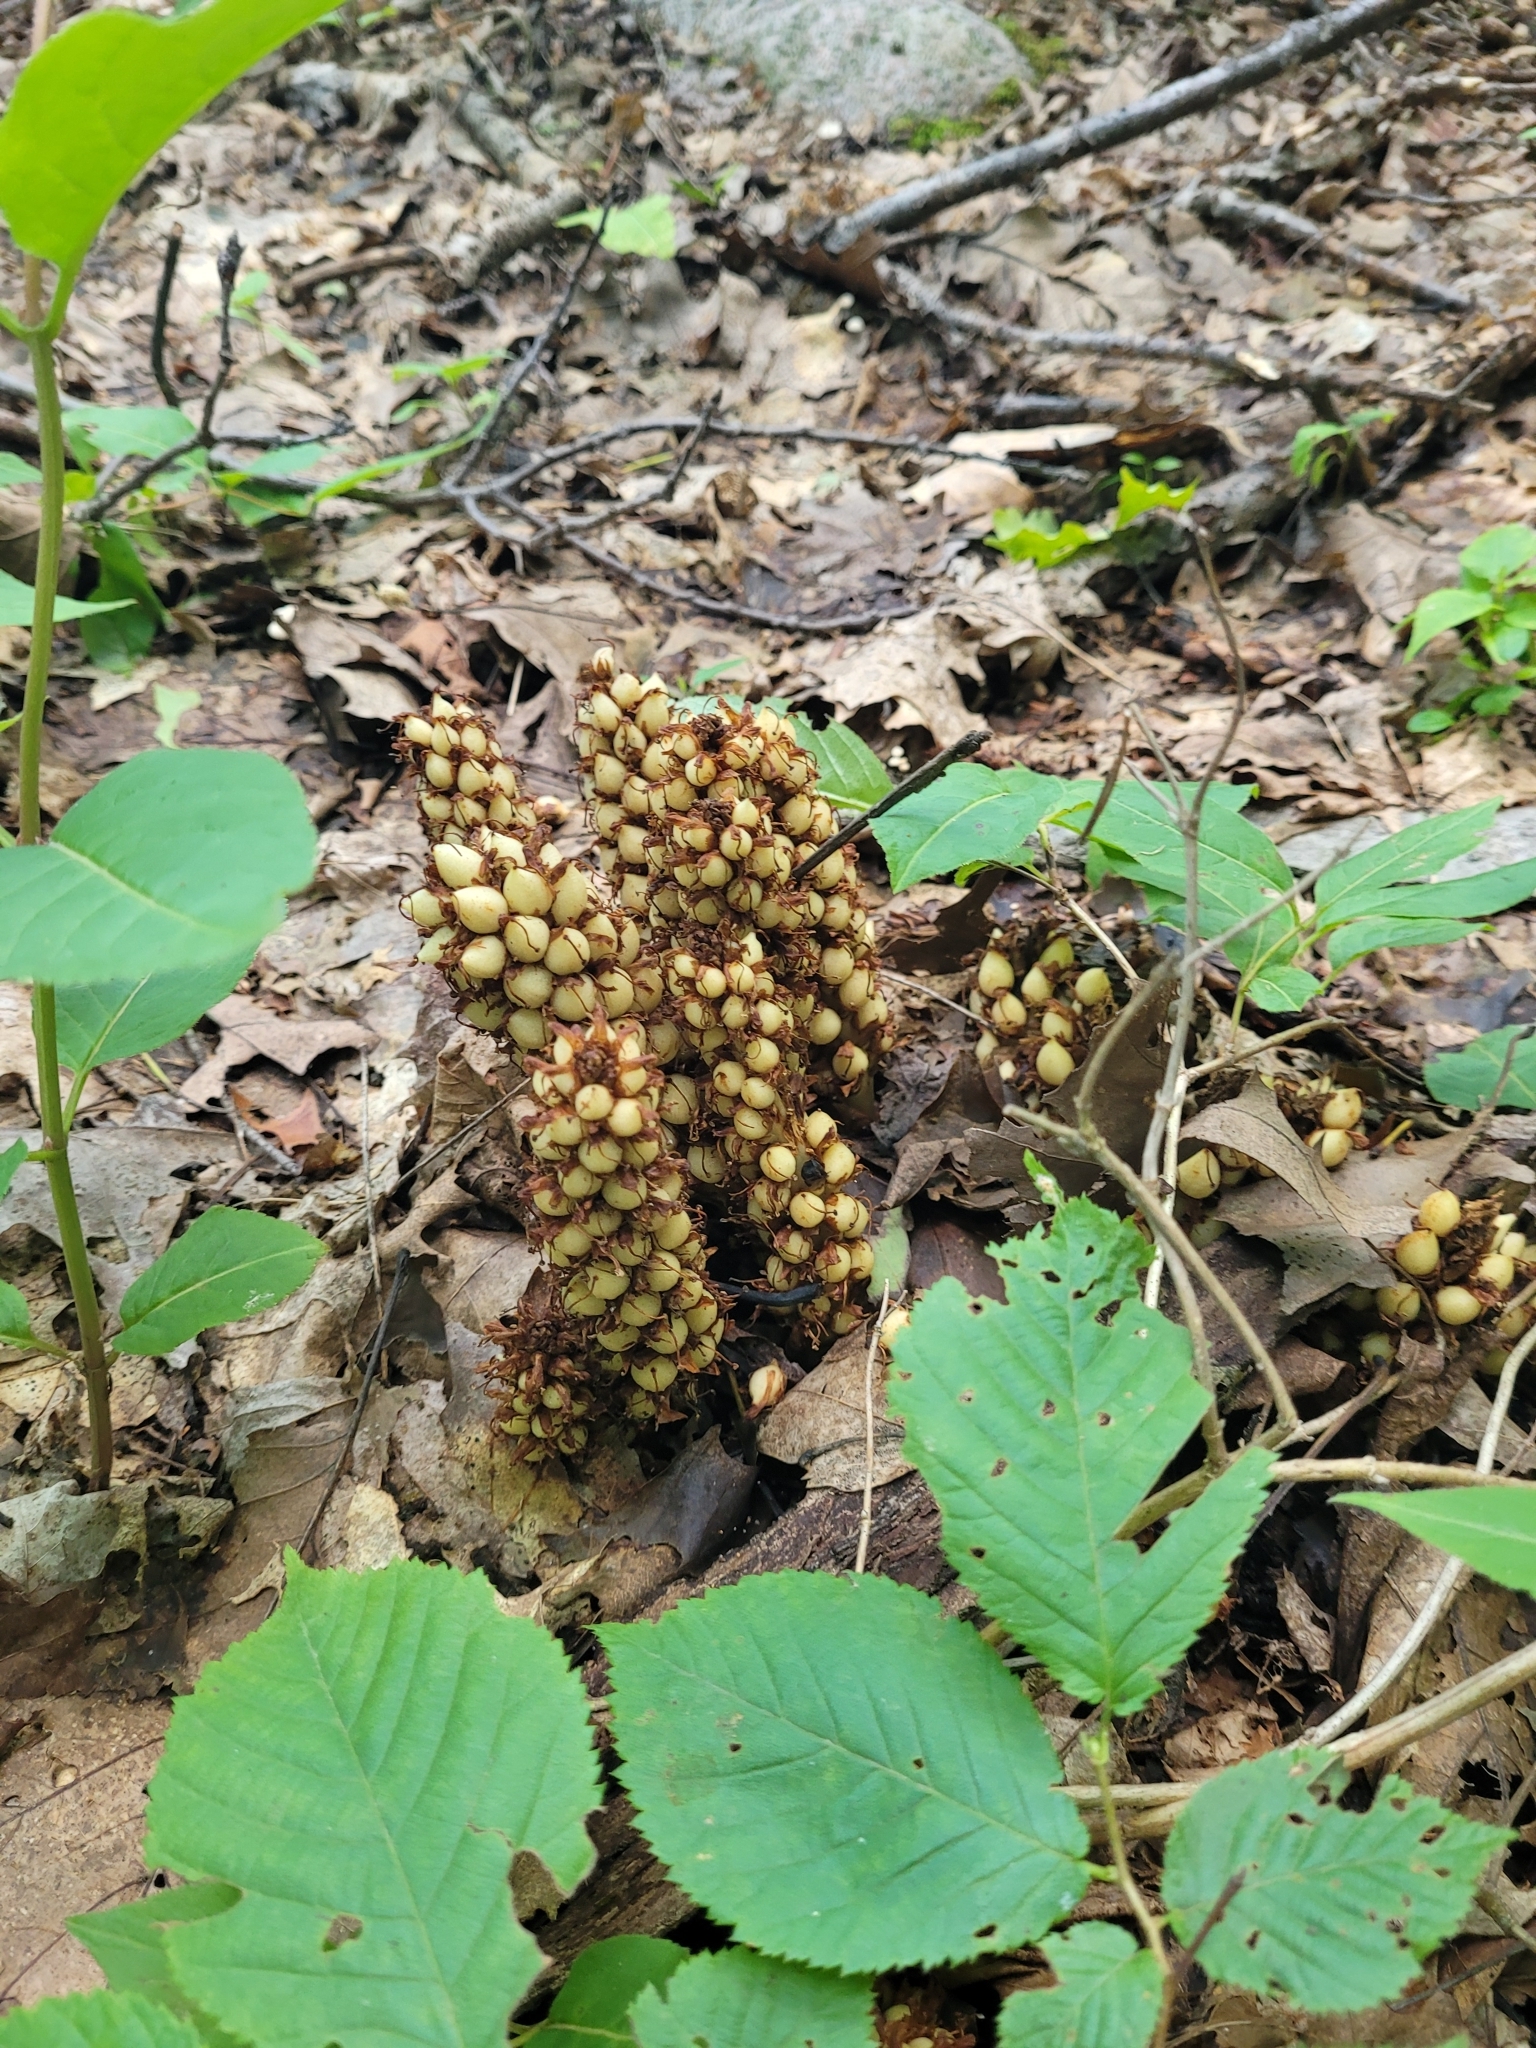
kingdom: Plantae
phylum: Tracheophyta
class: Magnoliopsida
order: Lamiales
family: Orobanchaceae
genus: Conopholis
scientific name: Conopholis americana
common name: American cancer-root
